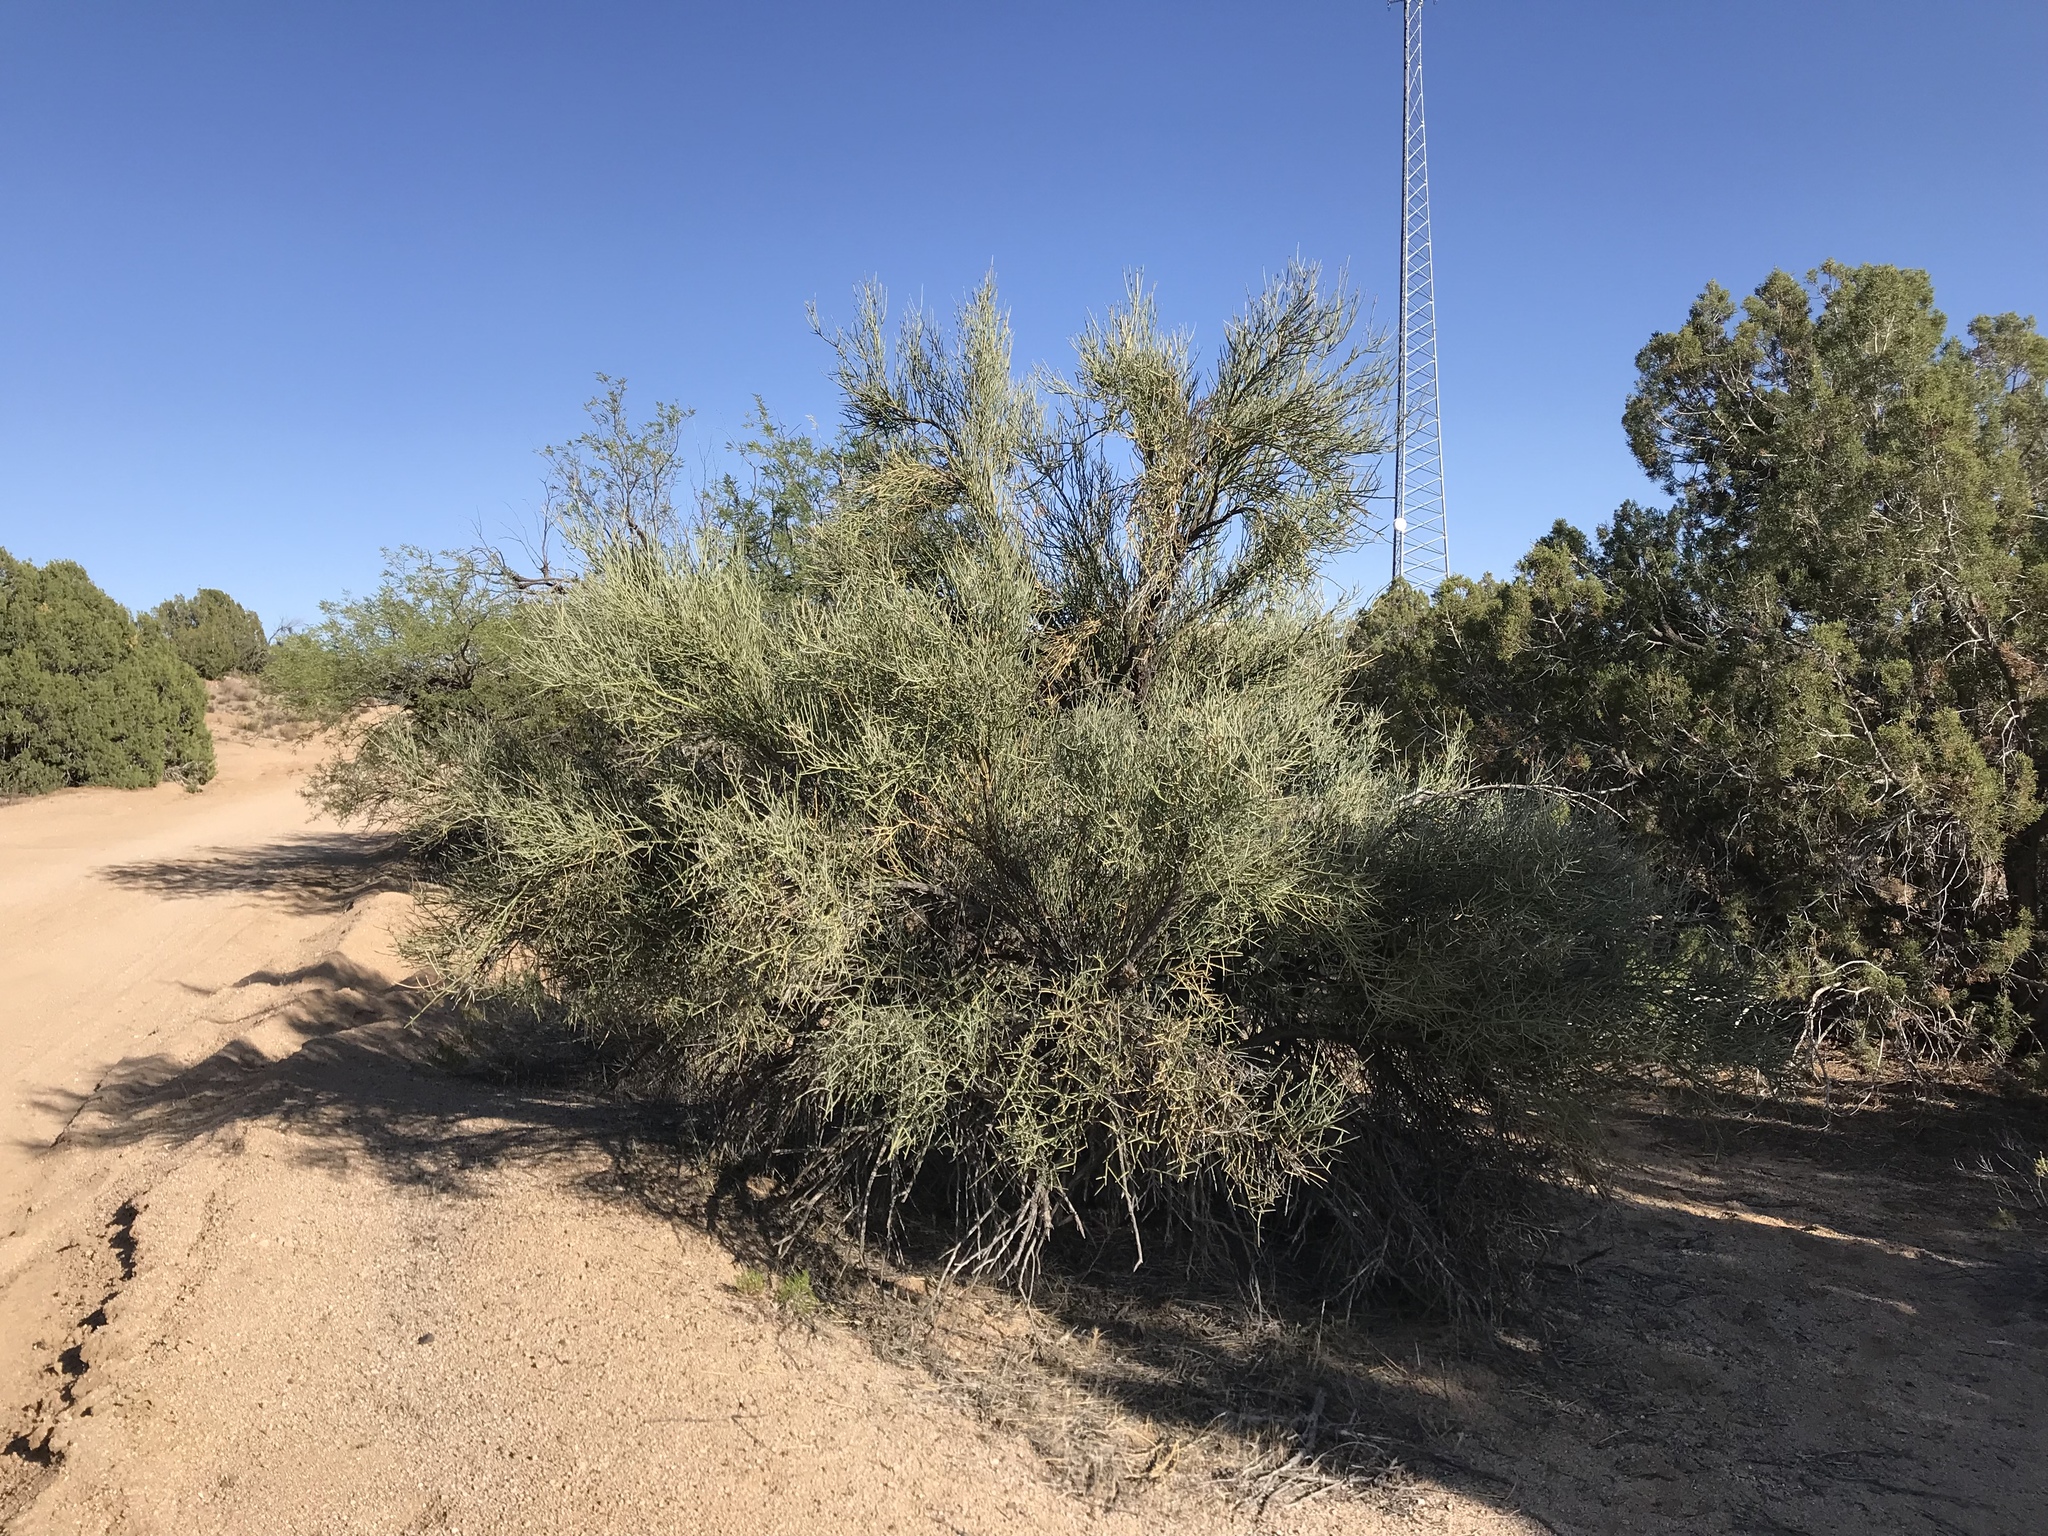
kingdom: Plantae
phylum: Tracheophyta
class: Magnoliopsida
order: Celastrales
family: Celastraceae
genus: Canotia
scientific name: Canotia holacantha
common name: Crucifixion thorns
